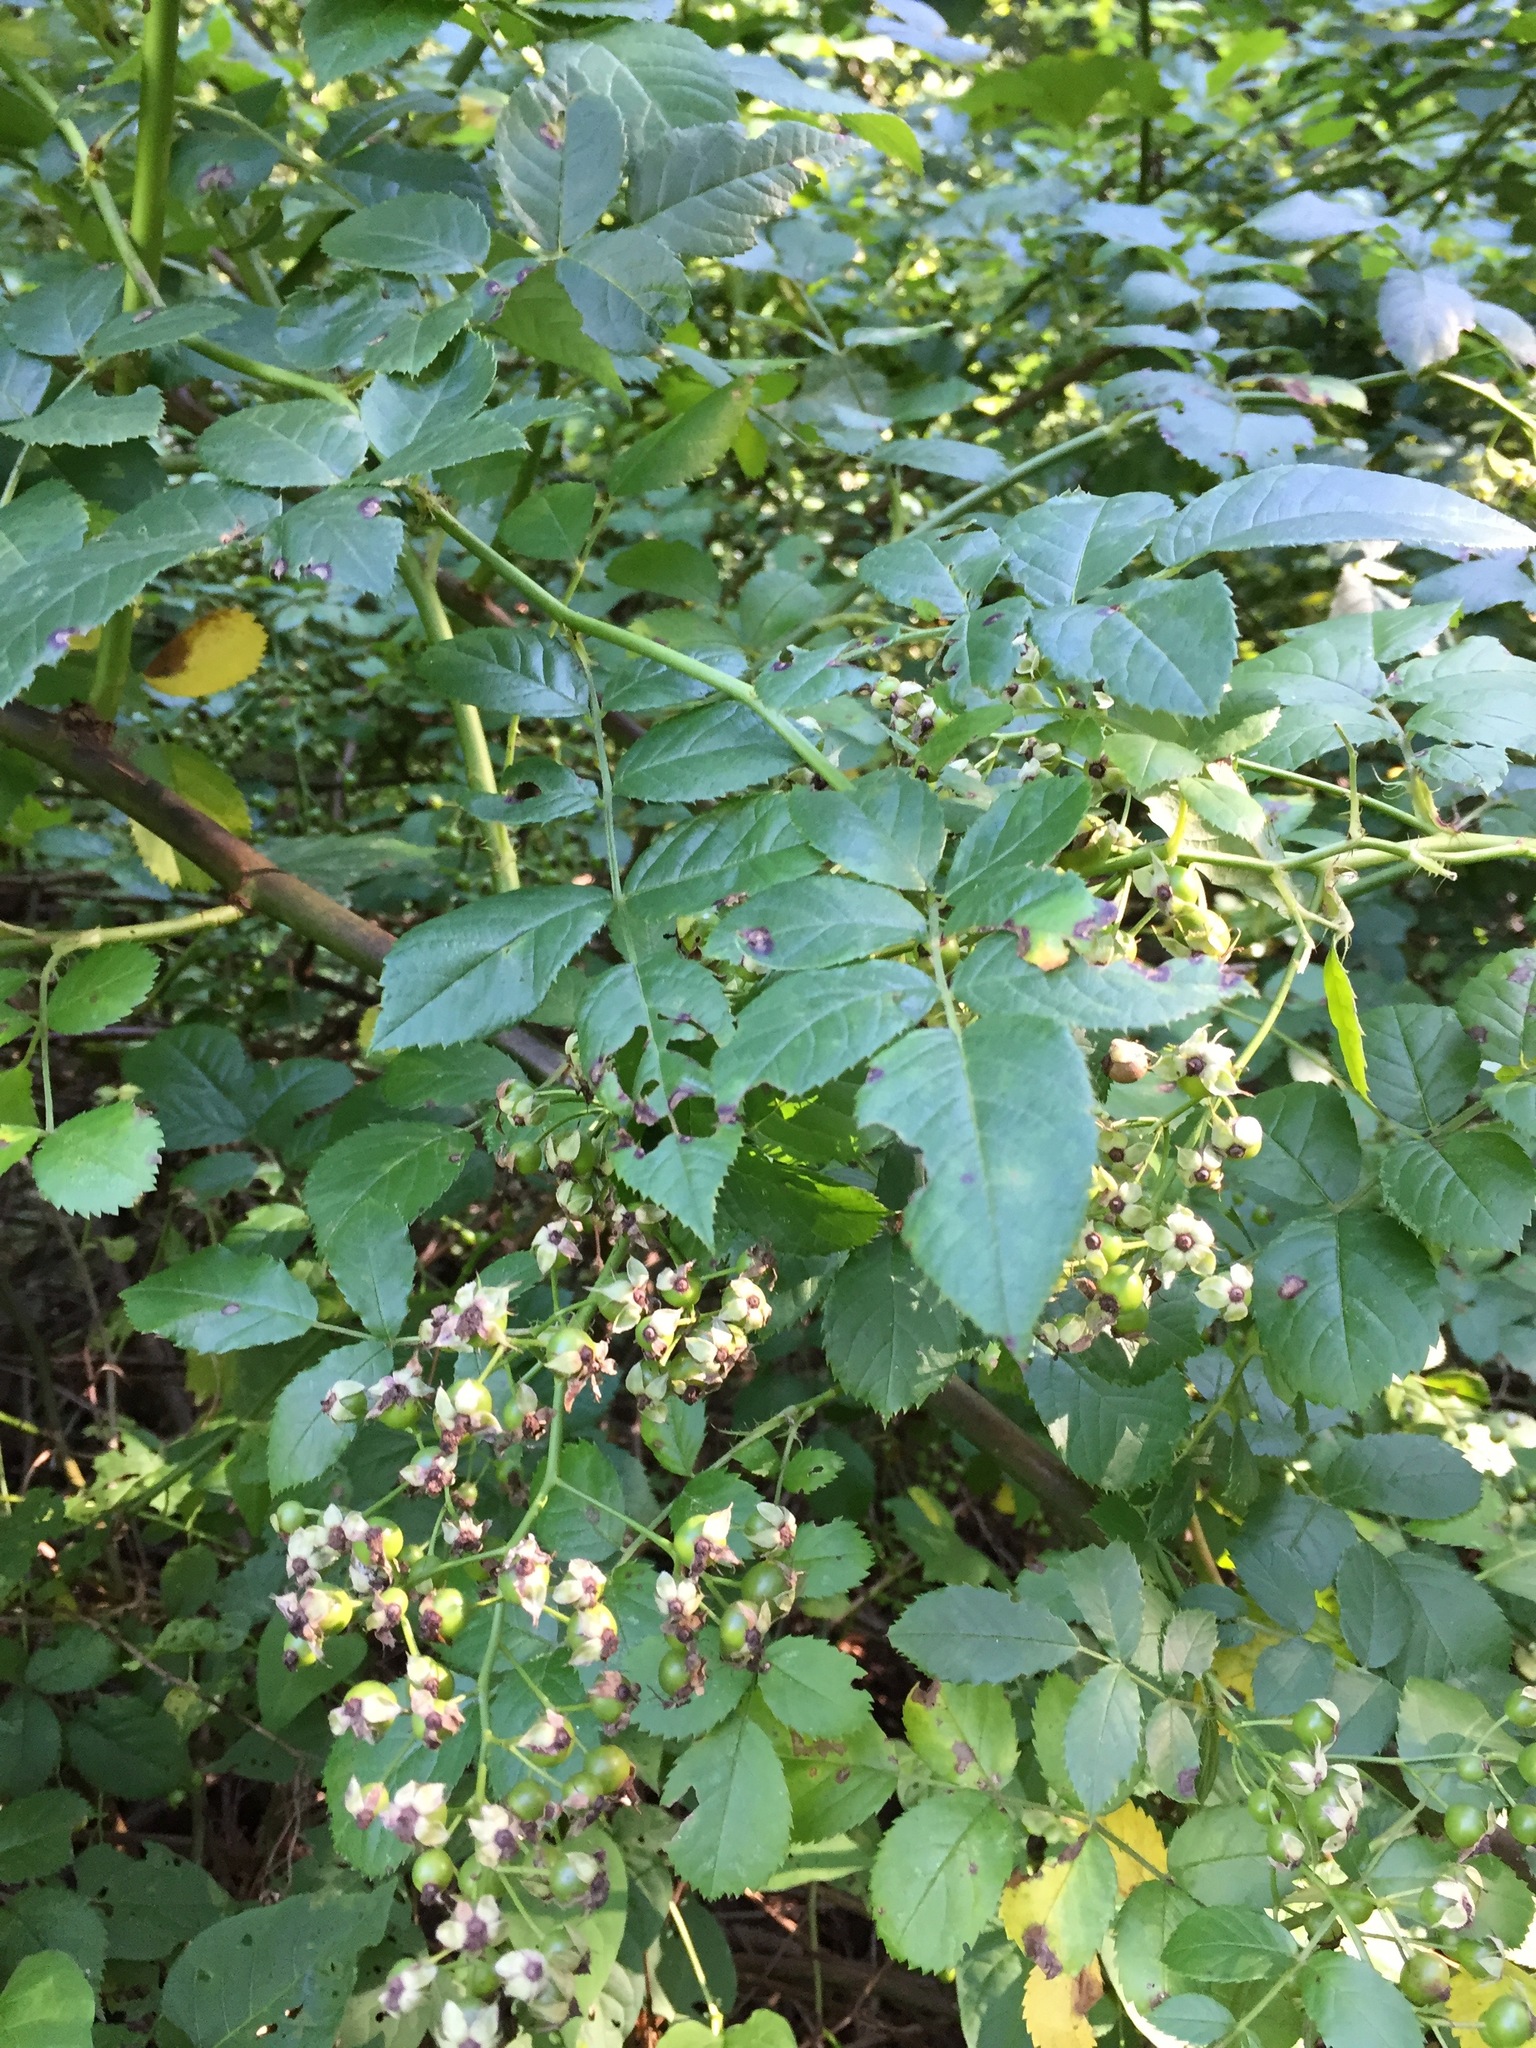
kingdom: Plantae
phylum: Tracheophyta
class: Magnoliopsida
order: Rosales
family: Rosaceae
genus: Rosa
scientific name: Rosa multiflora
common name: Multiflora rose
